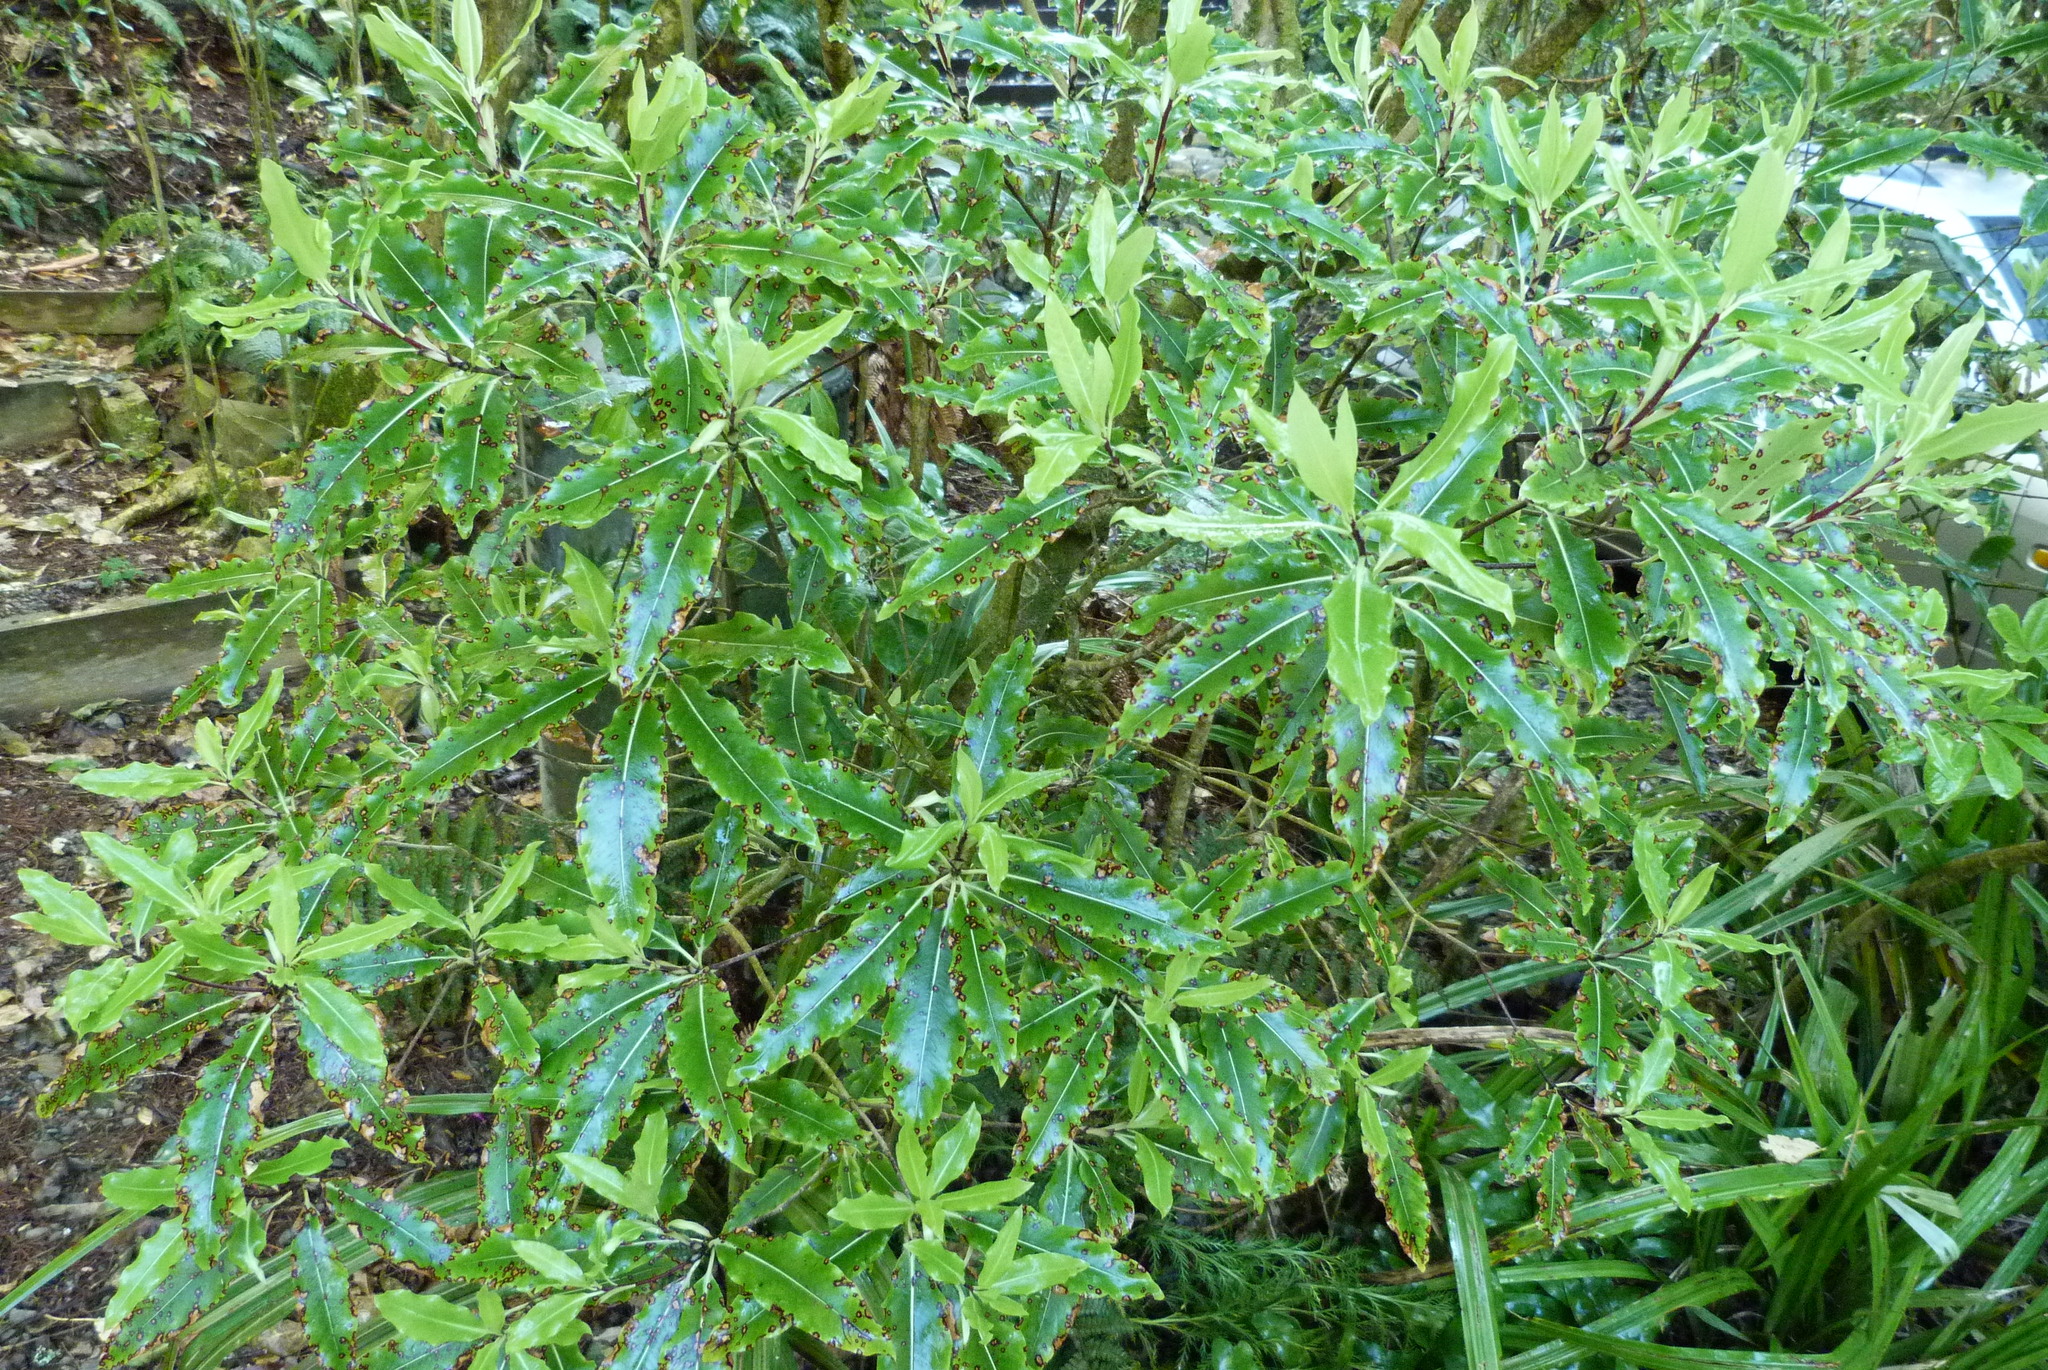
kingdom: Plantae
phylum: Tracheophyta
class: Magnoliopsida
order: Apiales
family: Pittosporaceae
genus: Pittosporum
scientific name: Pittosporum eugenioides
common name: Lemonwood
